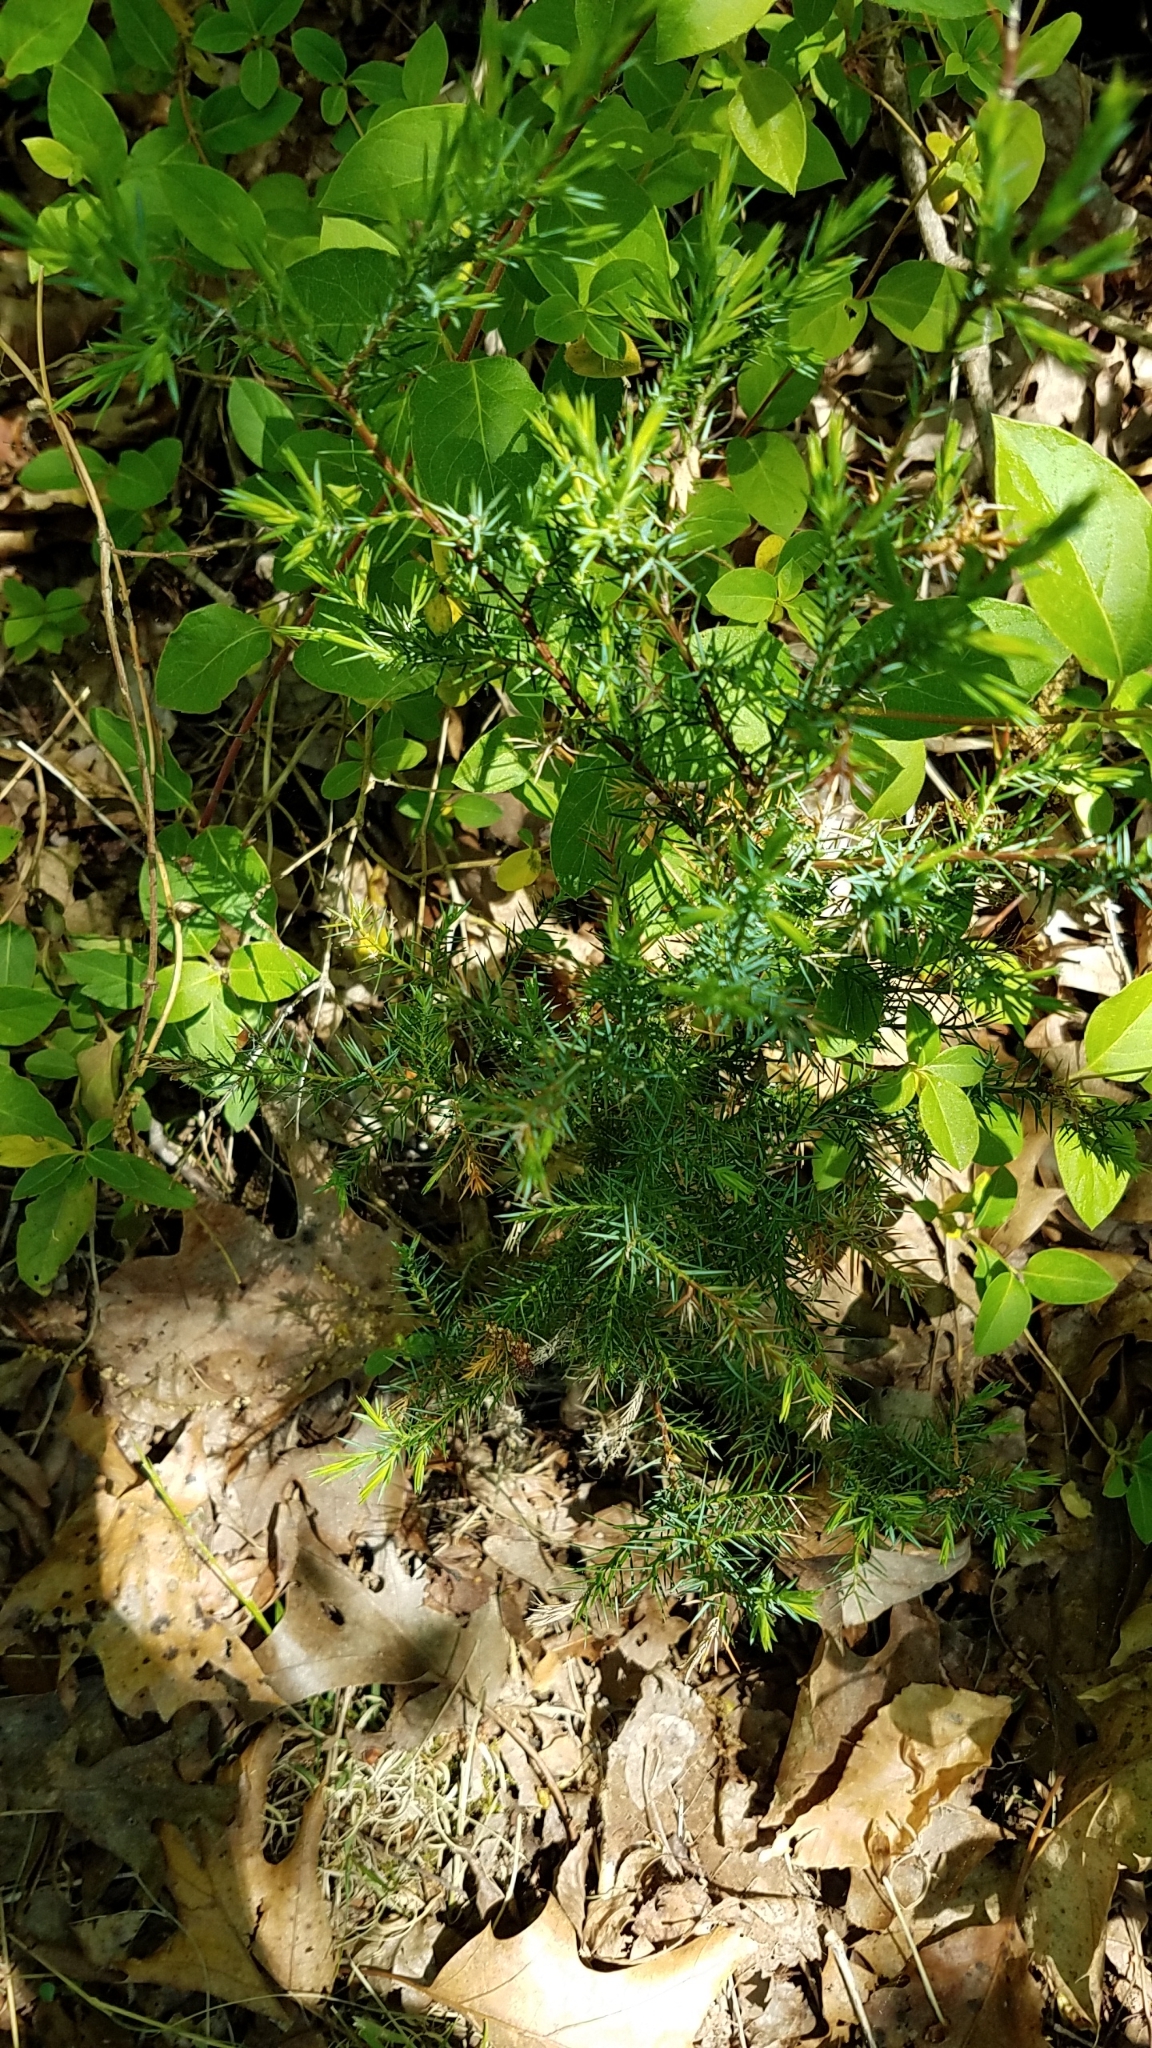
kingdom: Plantae
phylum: Tracheophyta
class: Pinopsida
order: Pinales
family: Cupressaceae
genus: Juniperus
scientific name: Juniperus virginiana
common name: Red juniper
